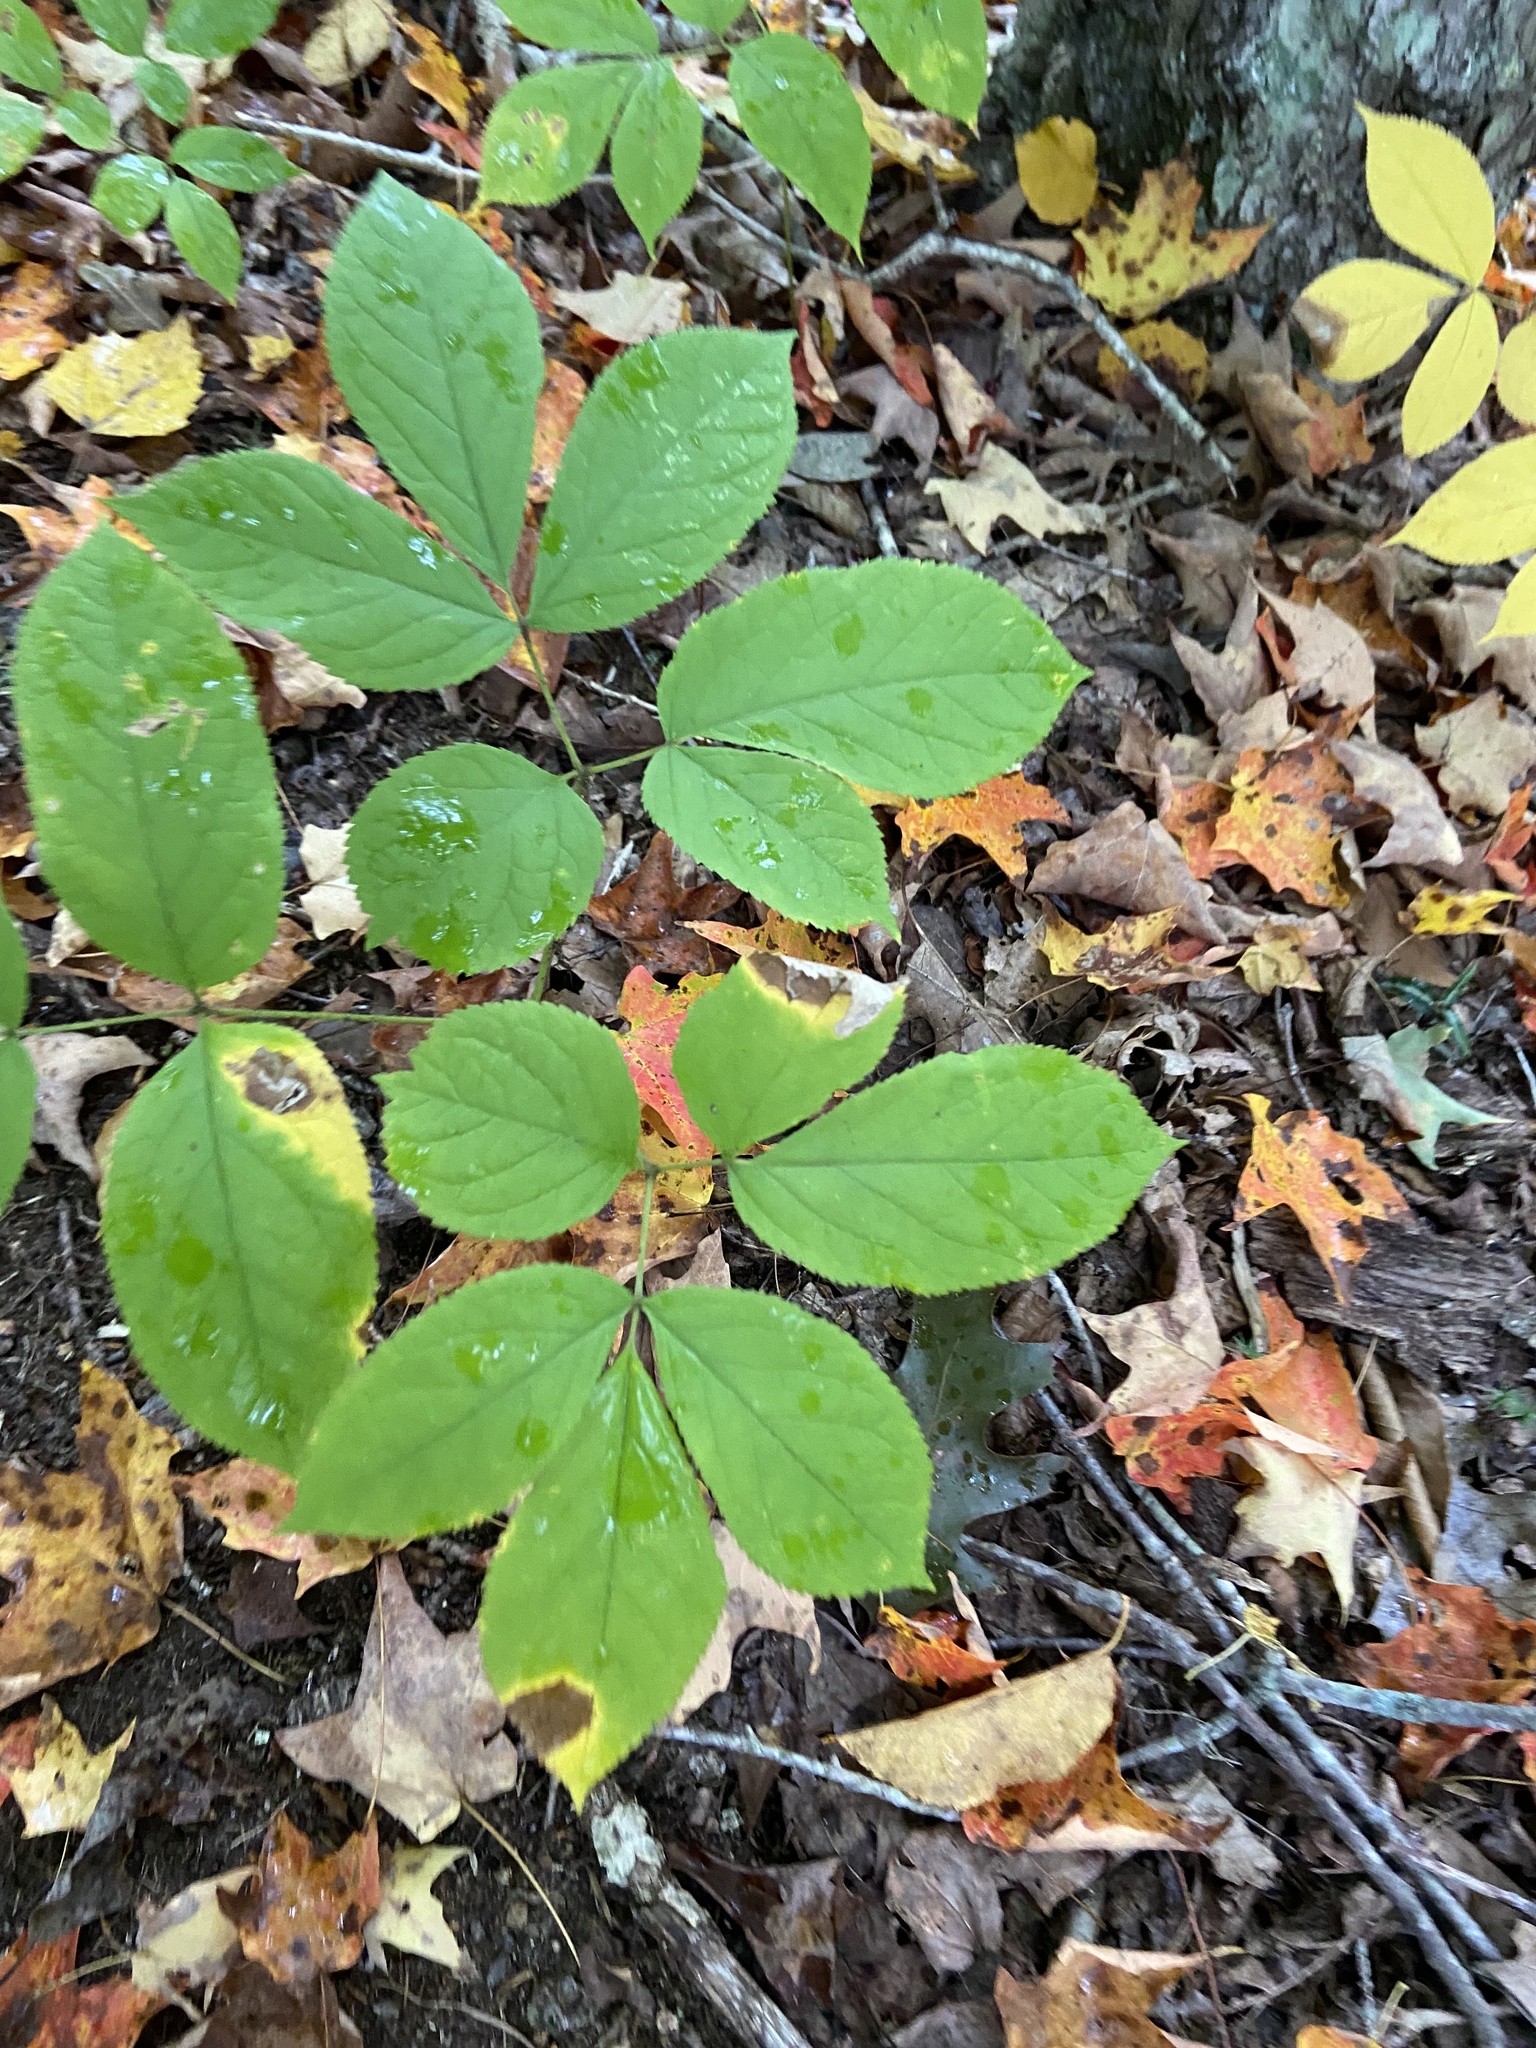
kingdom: Plantae
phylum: Tracheophyta
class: Magnoliopsida
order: Apiales
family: Araliaceae
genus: Aralia
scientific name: Aralia nudicaulis
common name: Wild sarsaparilla
